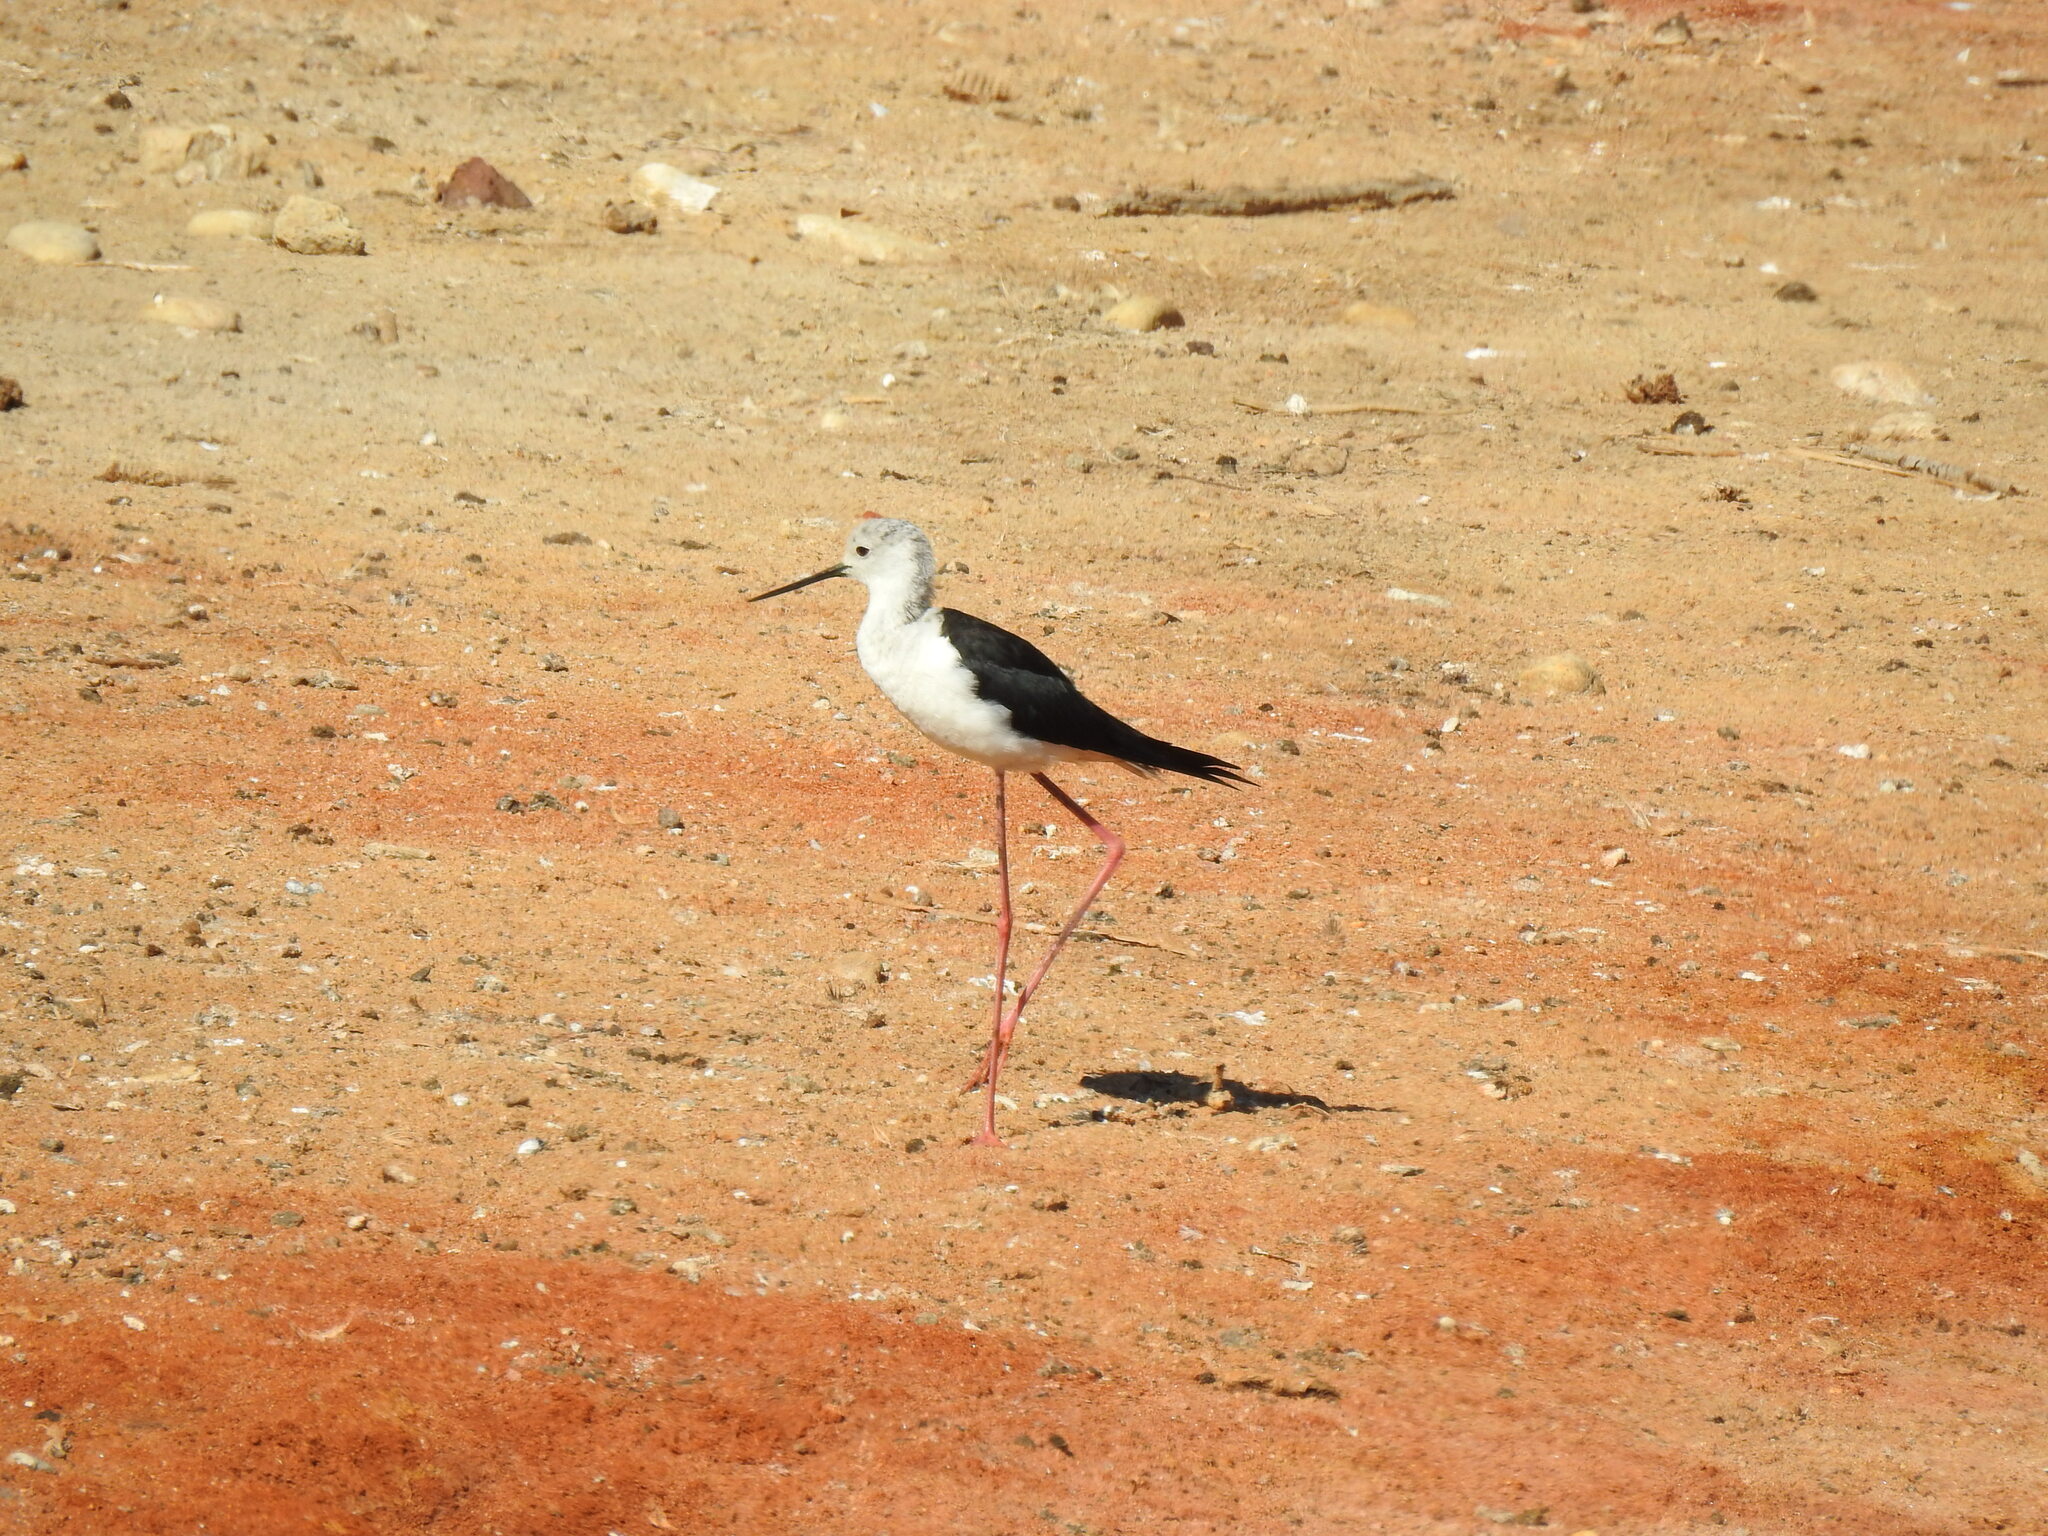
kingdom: Animalia
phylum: Chordata
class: Aves
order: Charadriiformes
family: Recurvirostridae
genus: Himantopus
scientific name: Himantopus himantopus
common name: Black-winged stilt
